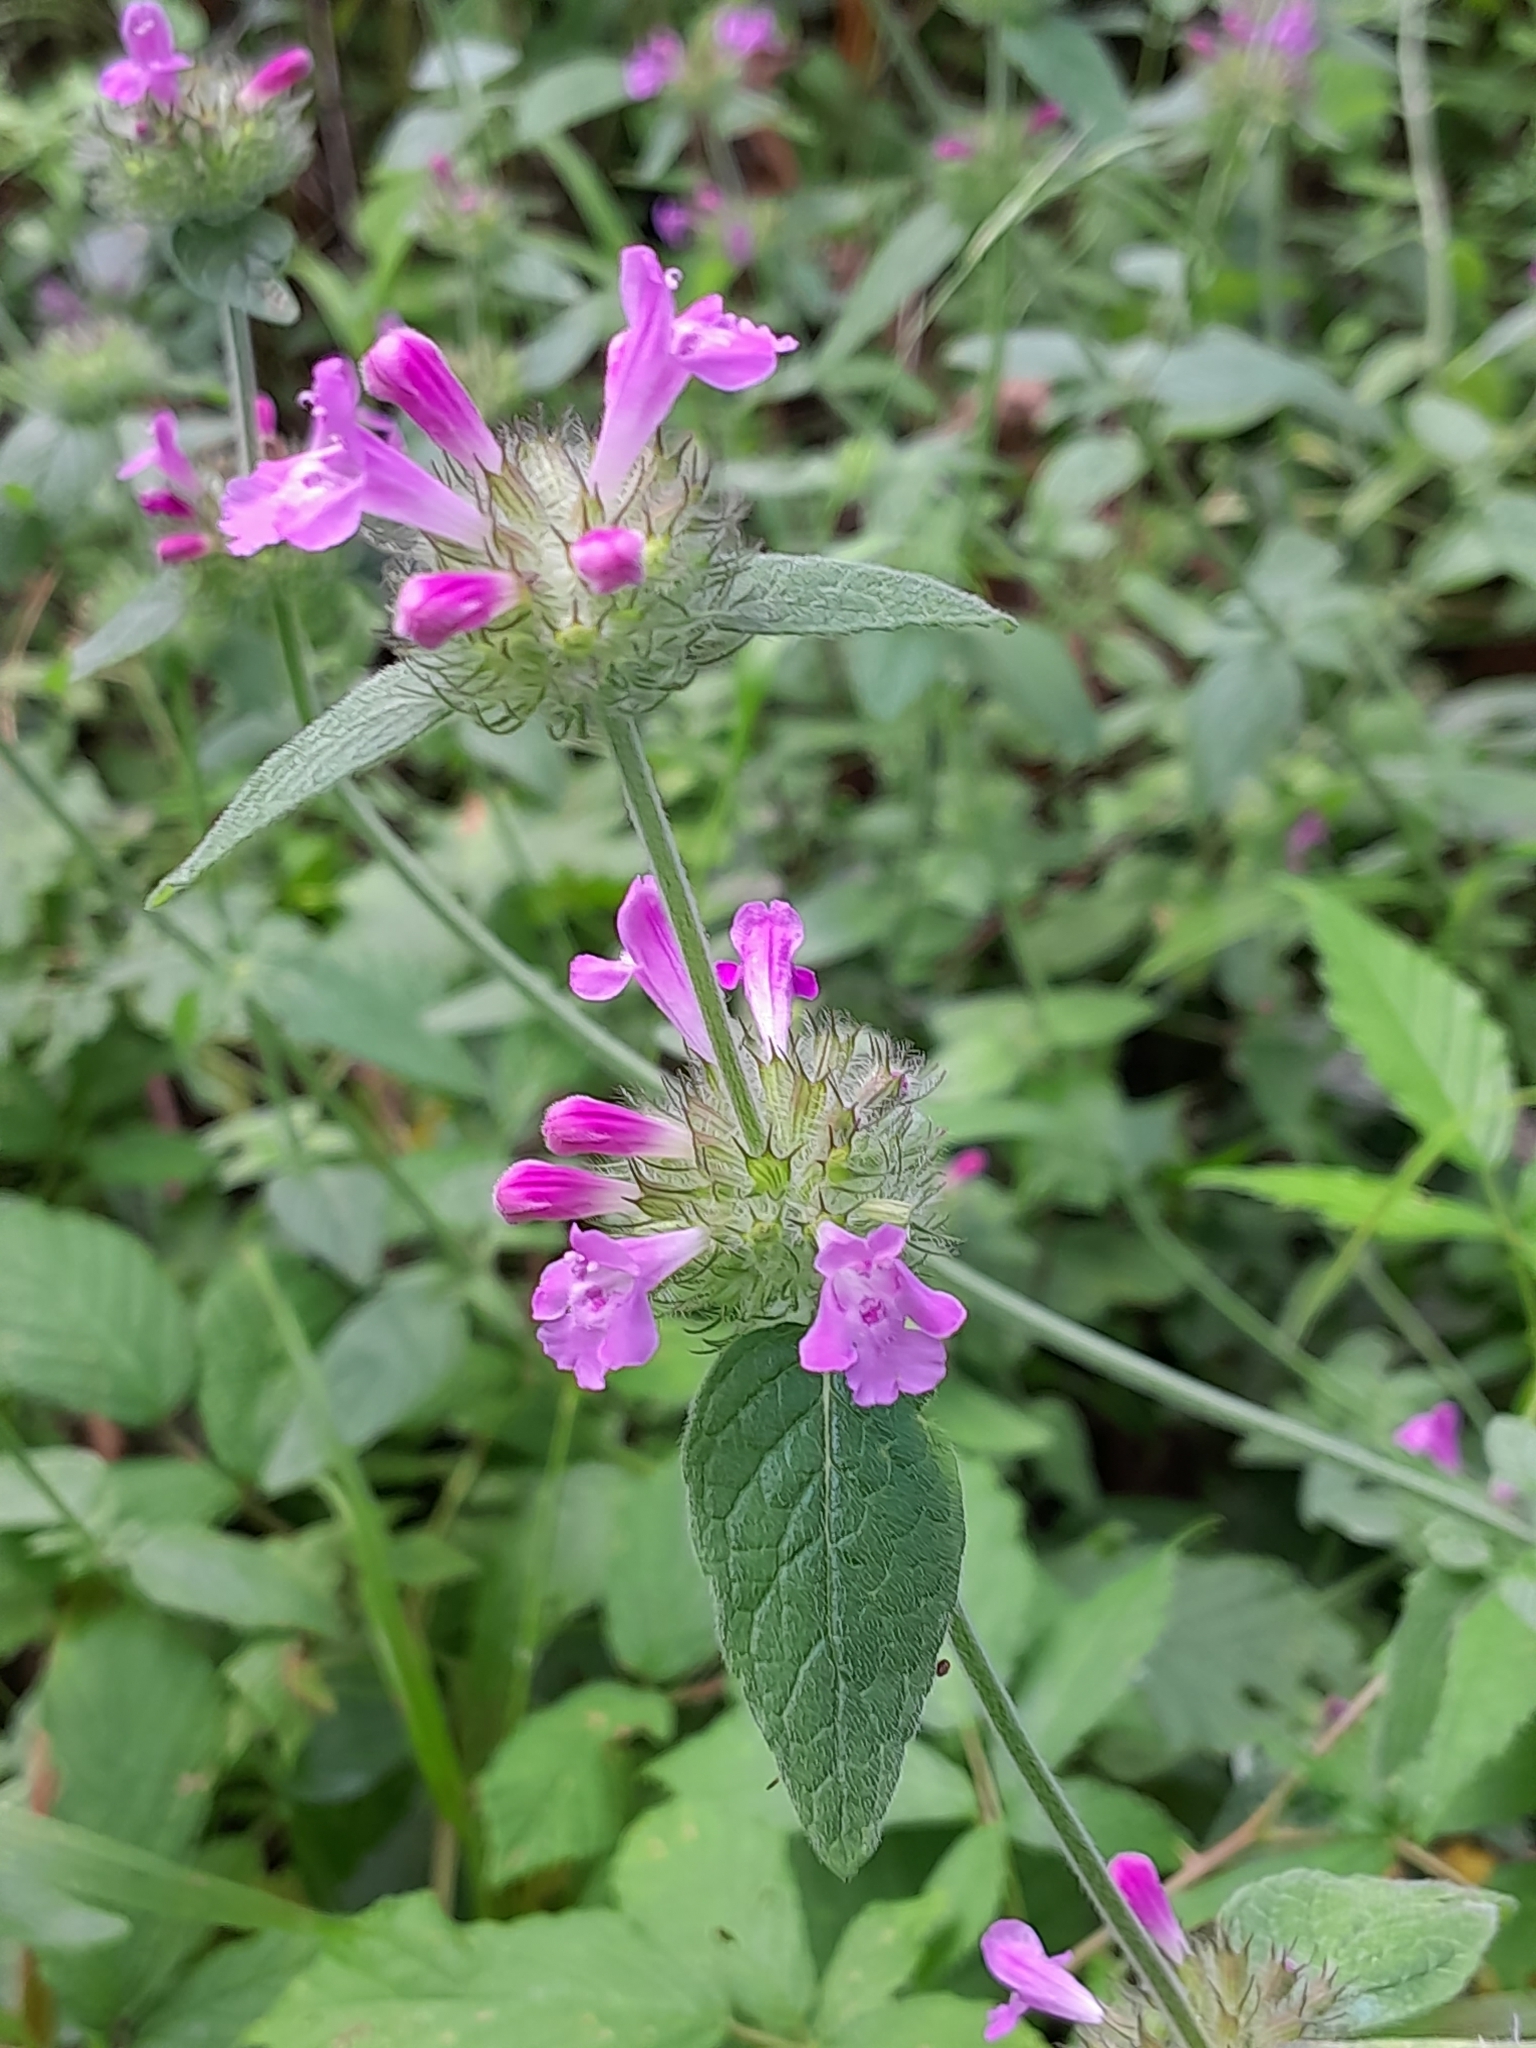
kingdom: Plantae
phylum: Tracheophyta
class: Magnoliopsida
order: Lamiales
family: Lamiaceae
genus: Clinopodium
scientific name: Clinopodium vulgare
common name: Wild basil
